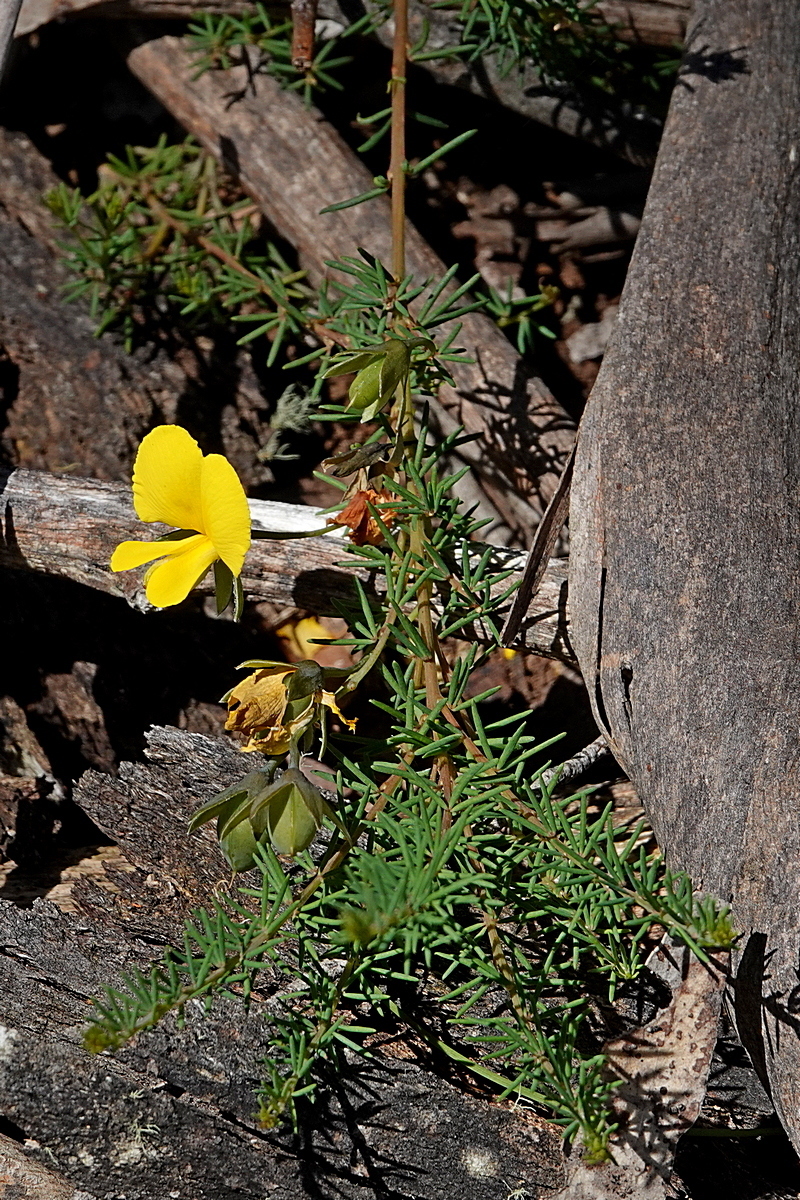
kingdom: Plantae
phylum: Tracheophyta
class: Magnoliopsida
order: Fabales
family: Fabaceae
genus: Gompholobium
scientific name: Gompholobium huegelii
